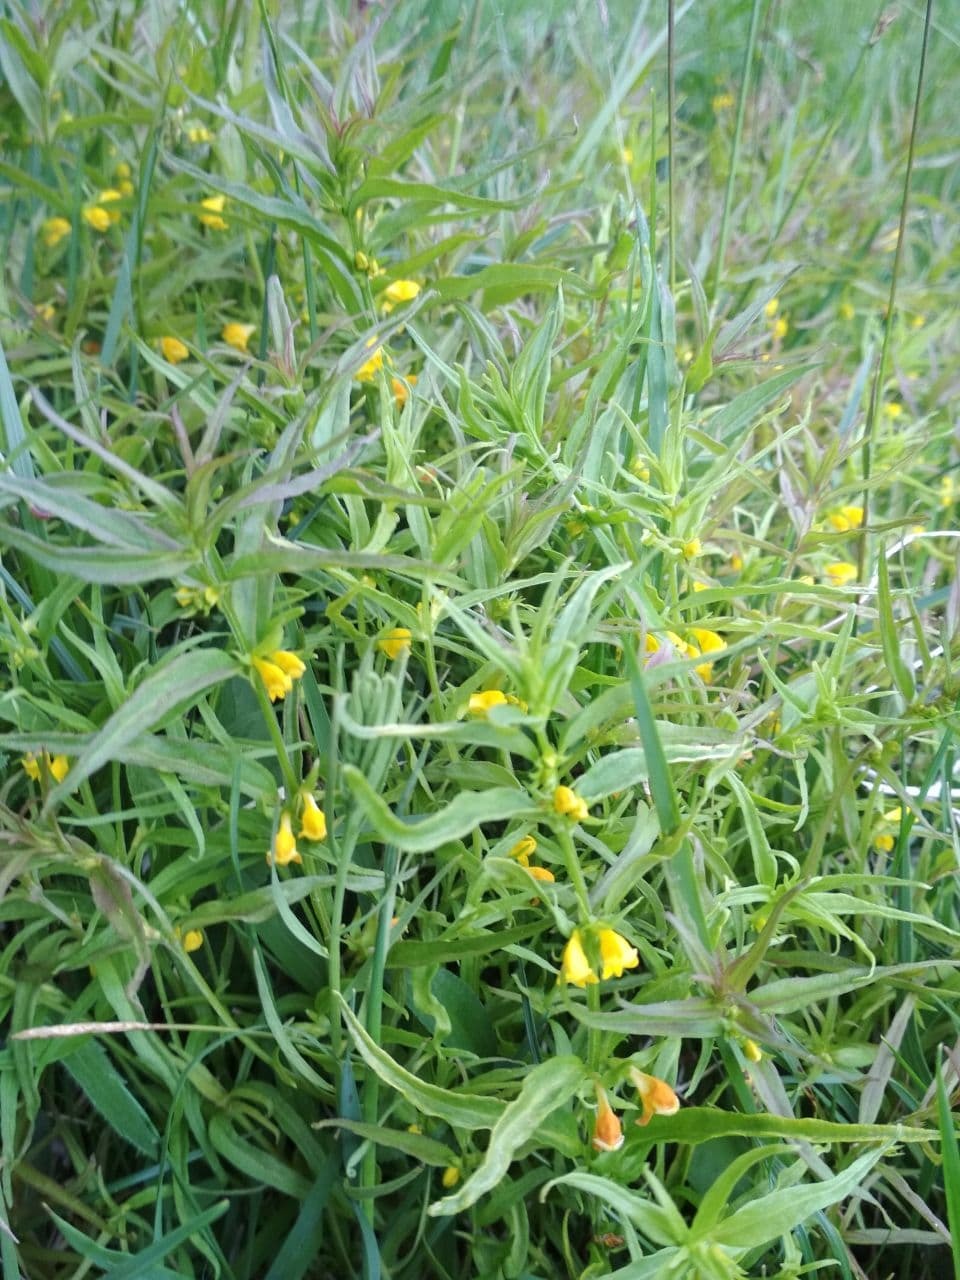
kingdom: Plantae
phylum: Tracheophyta
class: Magnoliopsida
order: Lamiales
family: Orobanchaceae
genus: Melampyrum
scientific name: Melampyrum sylvaticum
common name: Small cow-wheat
